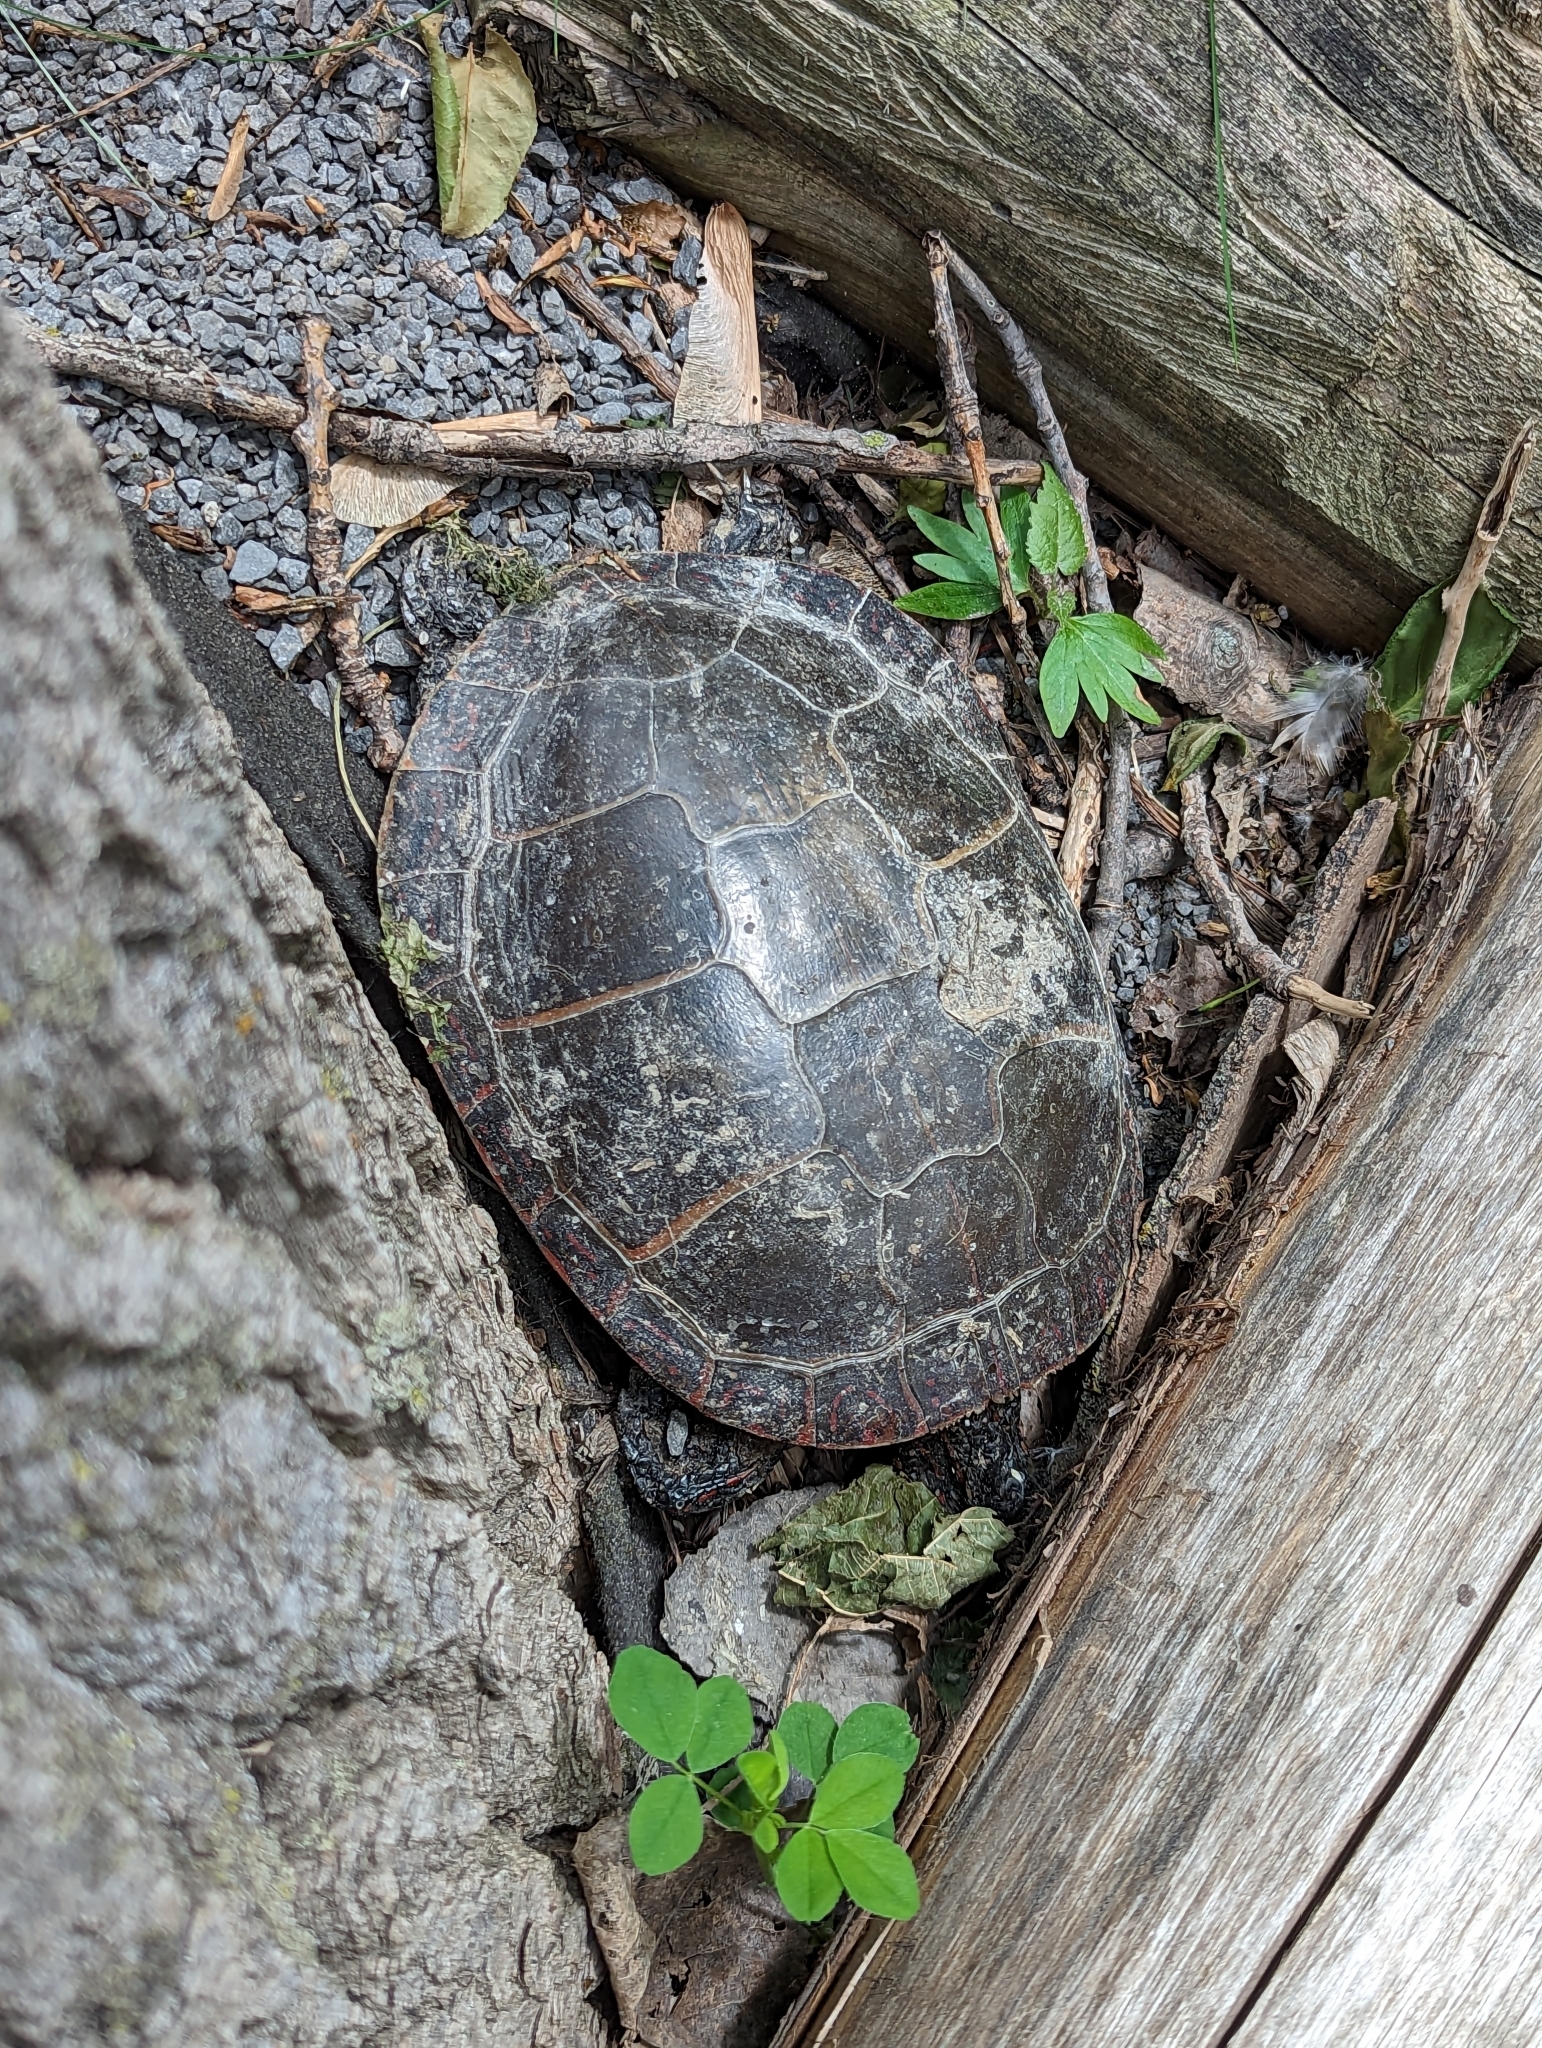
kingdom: Animalia
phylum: Chordata
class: Testudines
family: Emydidae
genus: Chrysemys
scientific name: Chrysemys picta
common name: Painted turtle
